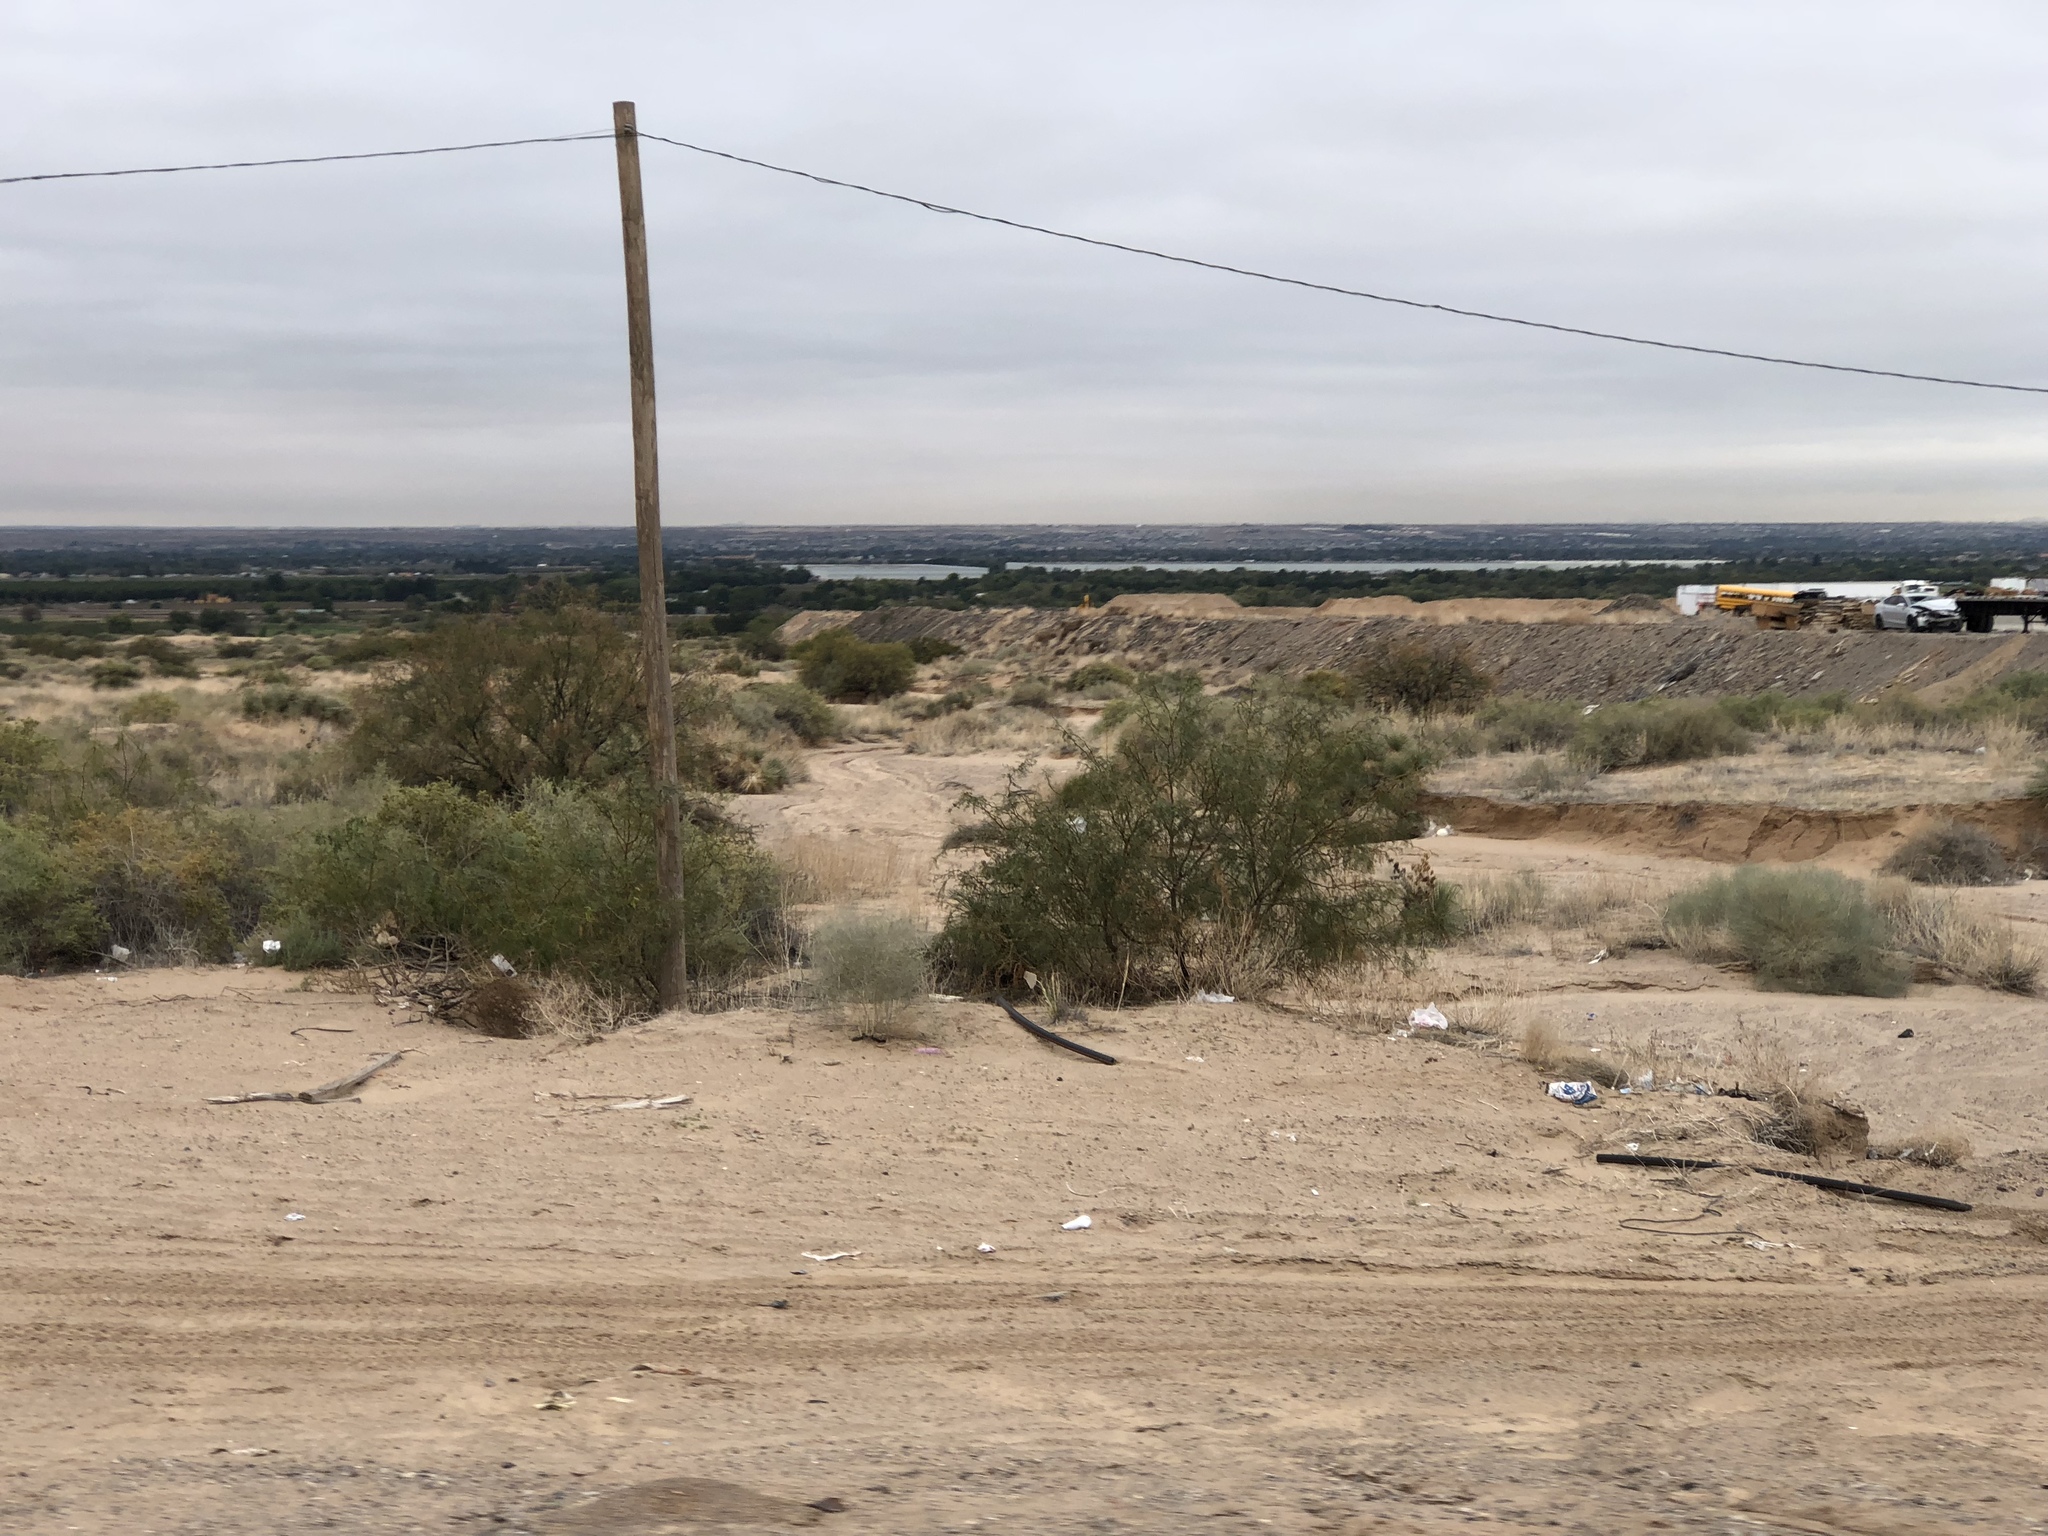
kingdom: Plantae
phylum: Tracheophyta
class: Magnoliopsida
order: Zygophyllales
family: Zygophyllaceae
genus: Larrea
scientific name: Larrea tridentata
